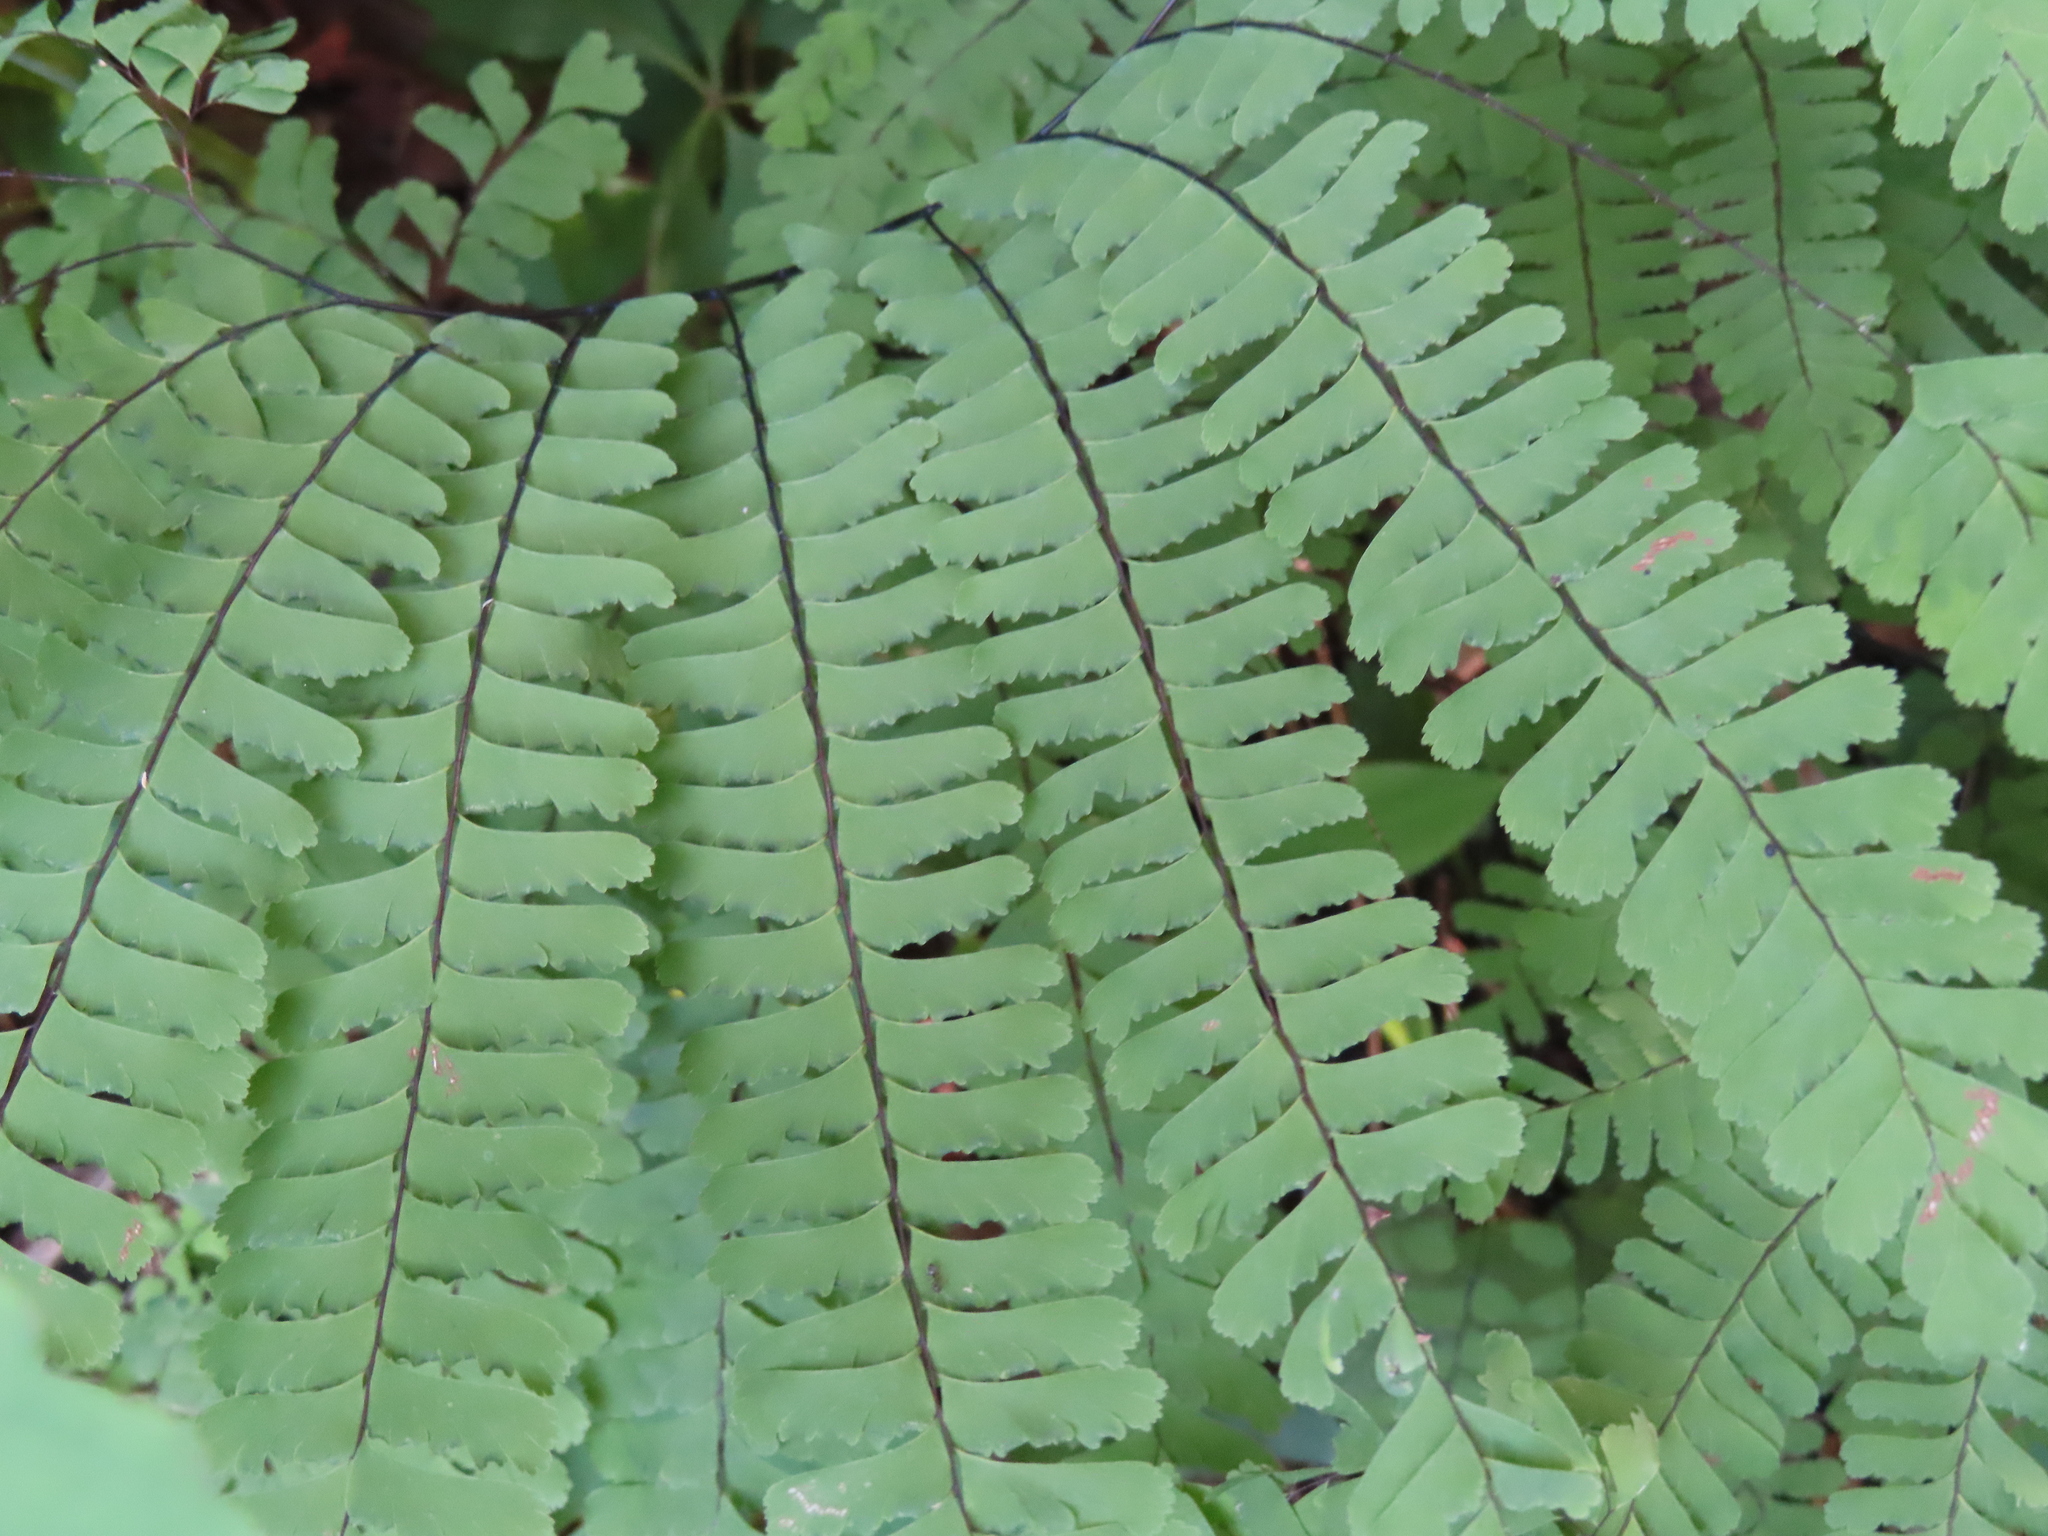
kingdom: Plantae
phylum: Tracheophyta
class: Polypodiopsida
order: Polypodiales
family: Pteridaceae
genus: Adiantum
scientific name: Adiantum pedatum
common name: Five-finger fern
